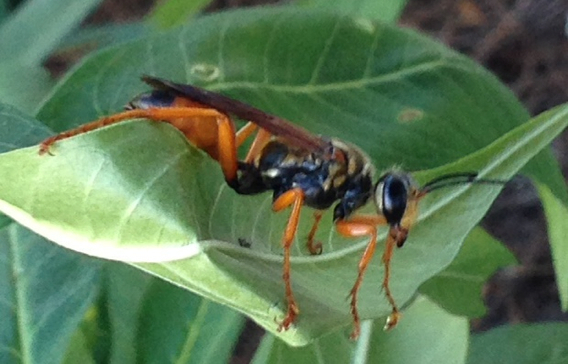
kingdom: Animalia
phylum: Arthropoda
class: Insecta
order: Hymenoptera
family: Sphecidae
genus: Sphex
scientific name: Sphex ichneumoneus
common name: Great golden digger wasp
